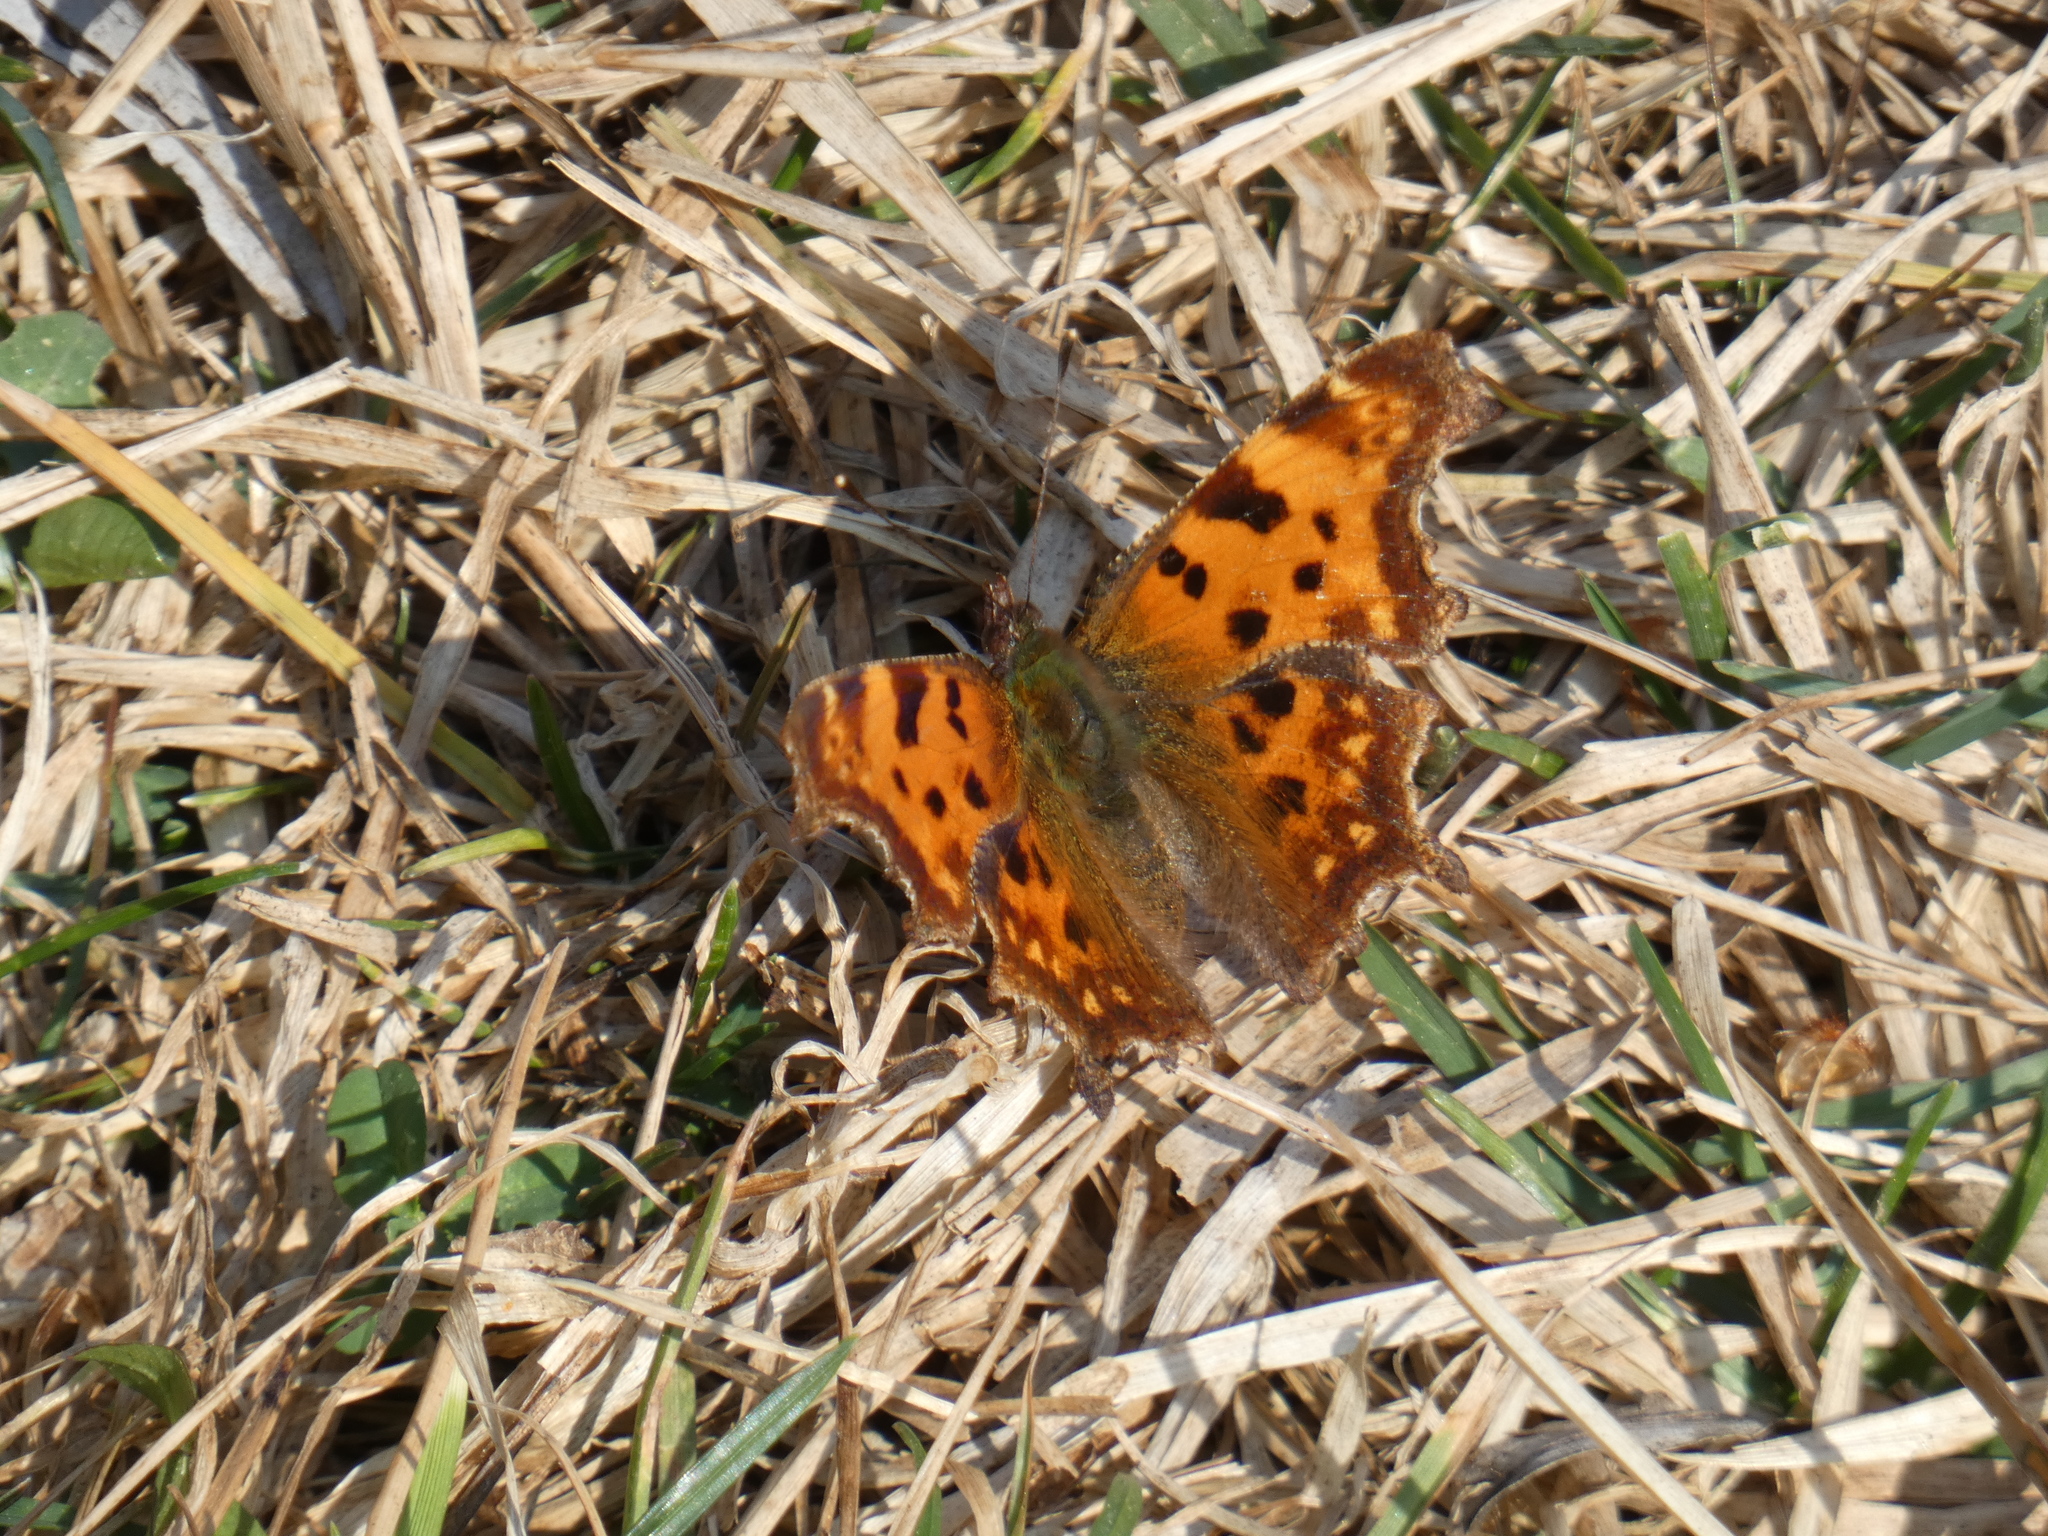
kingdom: Animalia
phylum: Arthropoda
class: Insecta
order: Lepidoptera
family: Nymphalidae
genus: Polygonia
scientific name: Polygonia c-album
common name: Comma
